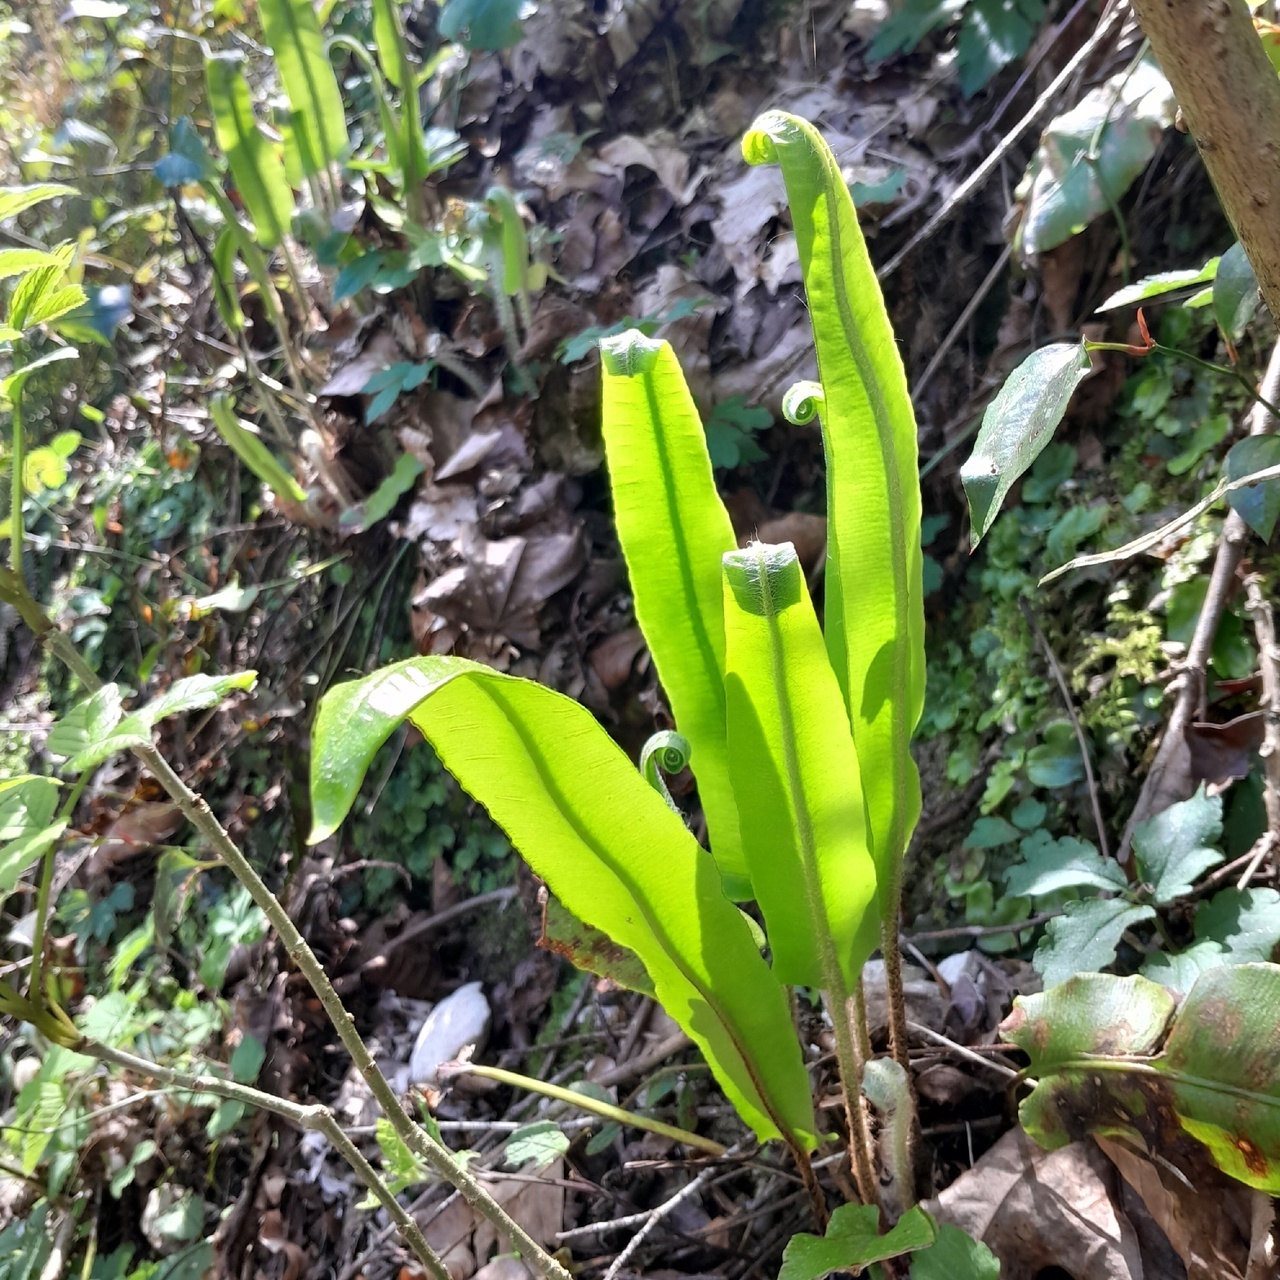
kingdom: Plantae
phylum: Tracheophyta
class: Polypodiopsida
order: Polypodiales
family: Aspleniaceae
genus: Asplenium
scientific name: Asplenium scolopendrium
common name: Hart's-tongue fern
